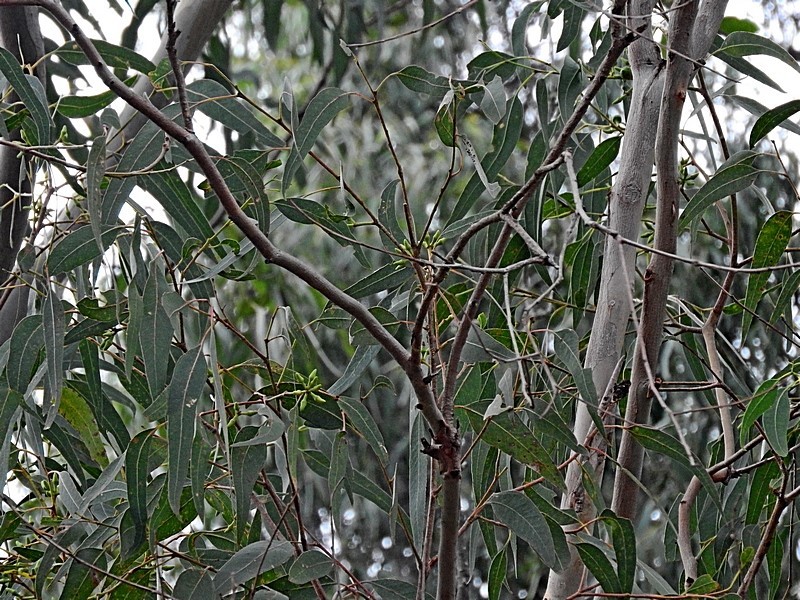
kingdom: Plantae
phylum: Tracheophyta
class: Magnoliopsida
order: Myrtales
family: Myrtaceae
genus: Eucalyptus
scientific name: Eucalyptus tereticornis
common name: Forest redgum
